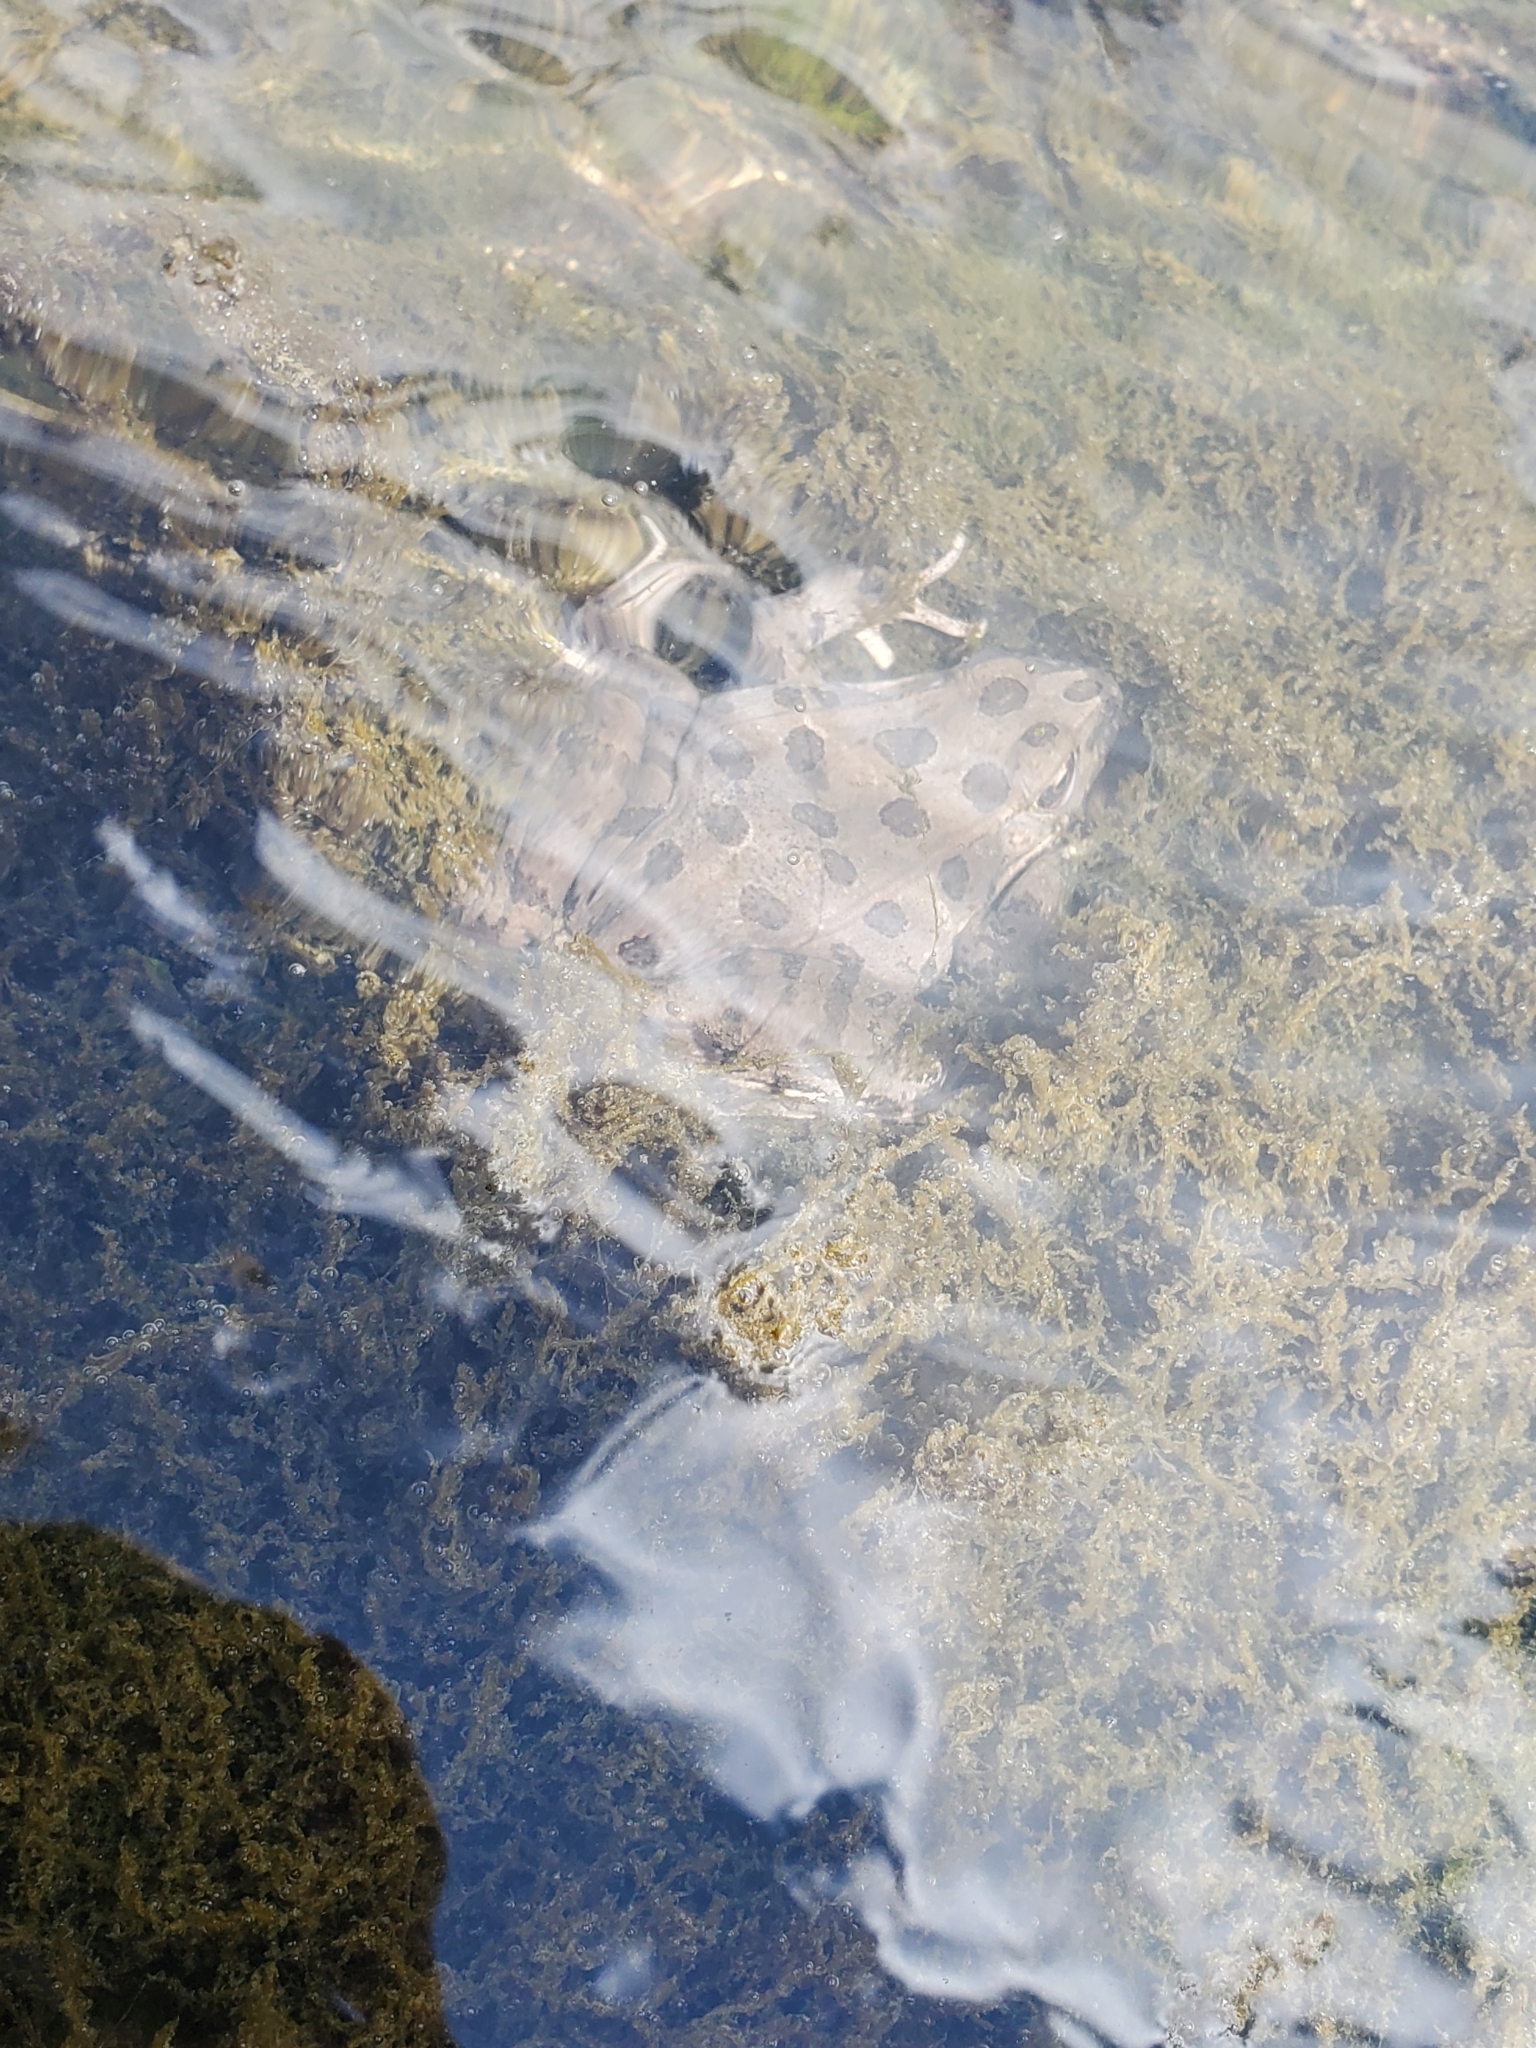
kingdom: Animalia
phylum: Chordata
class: Amphibia
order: Anura
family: Ranidae
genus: Lithobates
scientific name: Lithobates blairi
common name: Plains leopard frog
